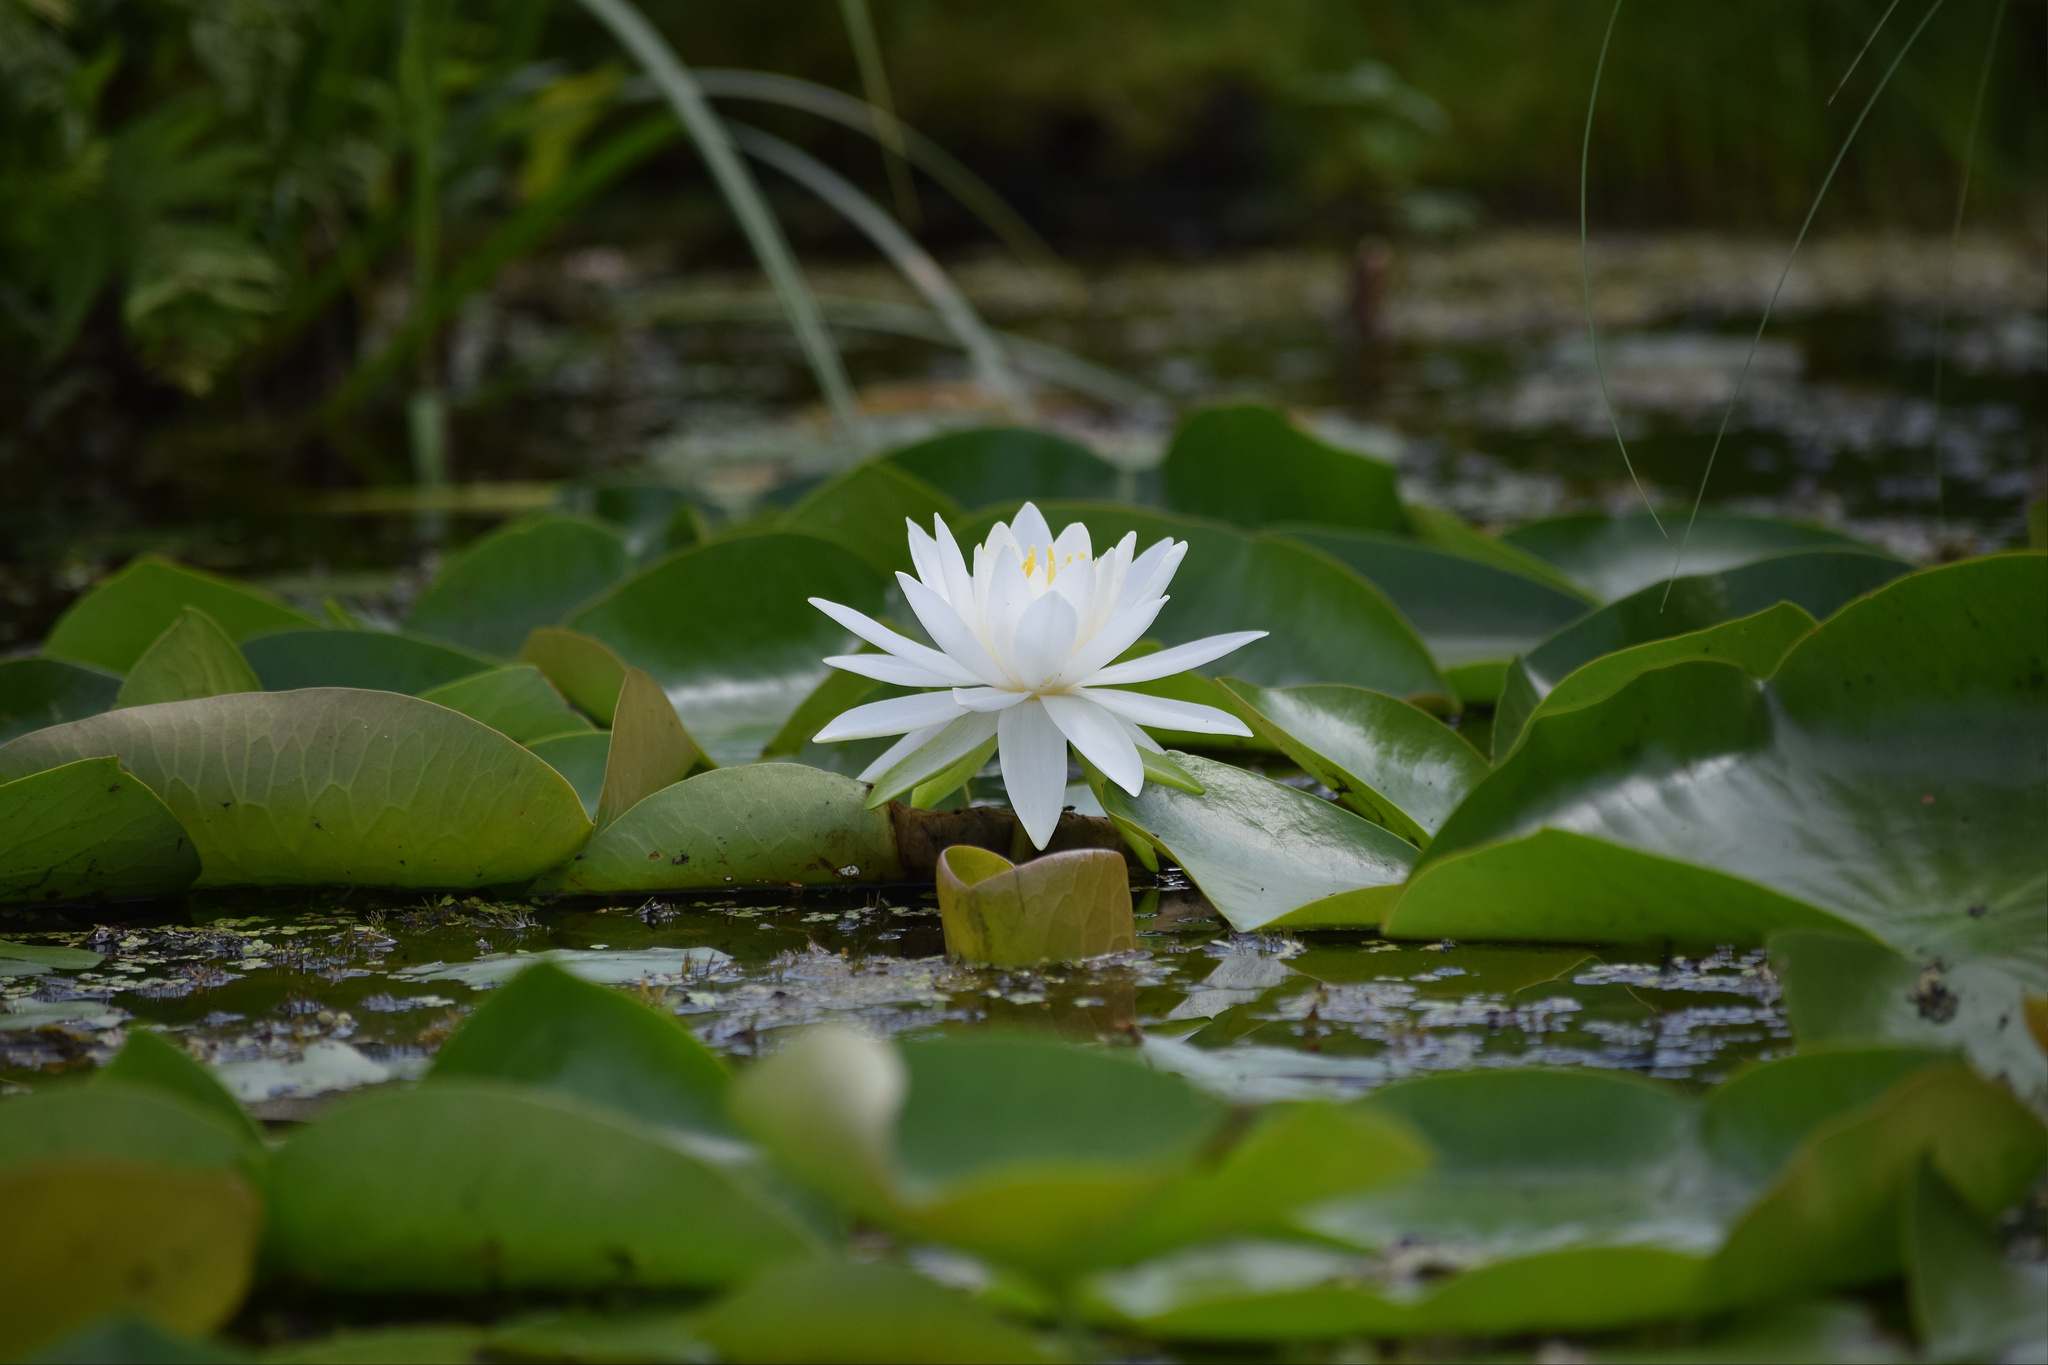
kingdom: Plantae
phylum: Tracheophyta
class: Magnoliopsida
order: Nymphaeales
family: Nymphaeaceae
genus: Nymphaea
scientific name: Nymphaea odorata
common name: Fragrant water-lily
